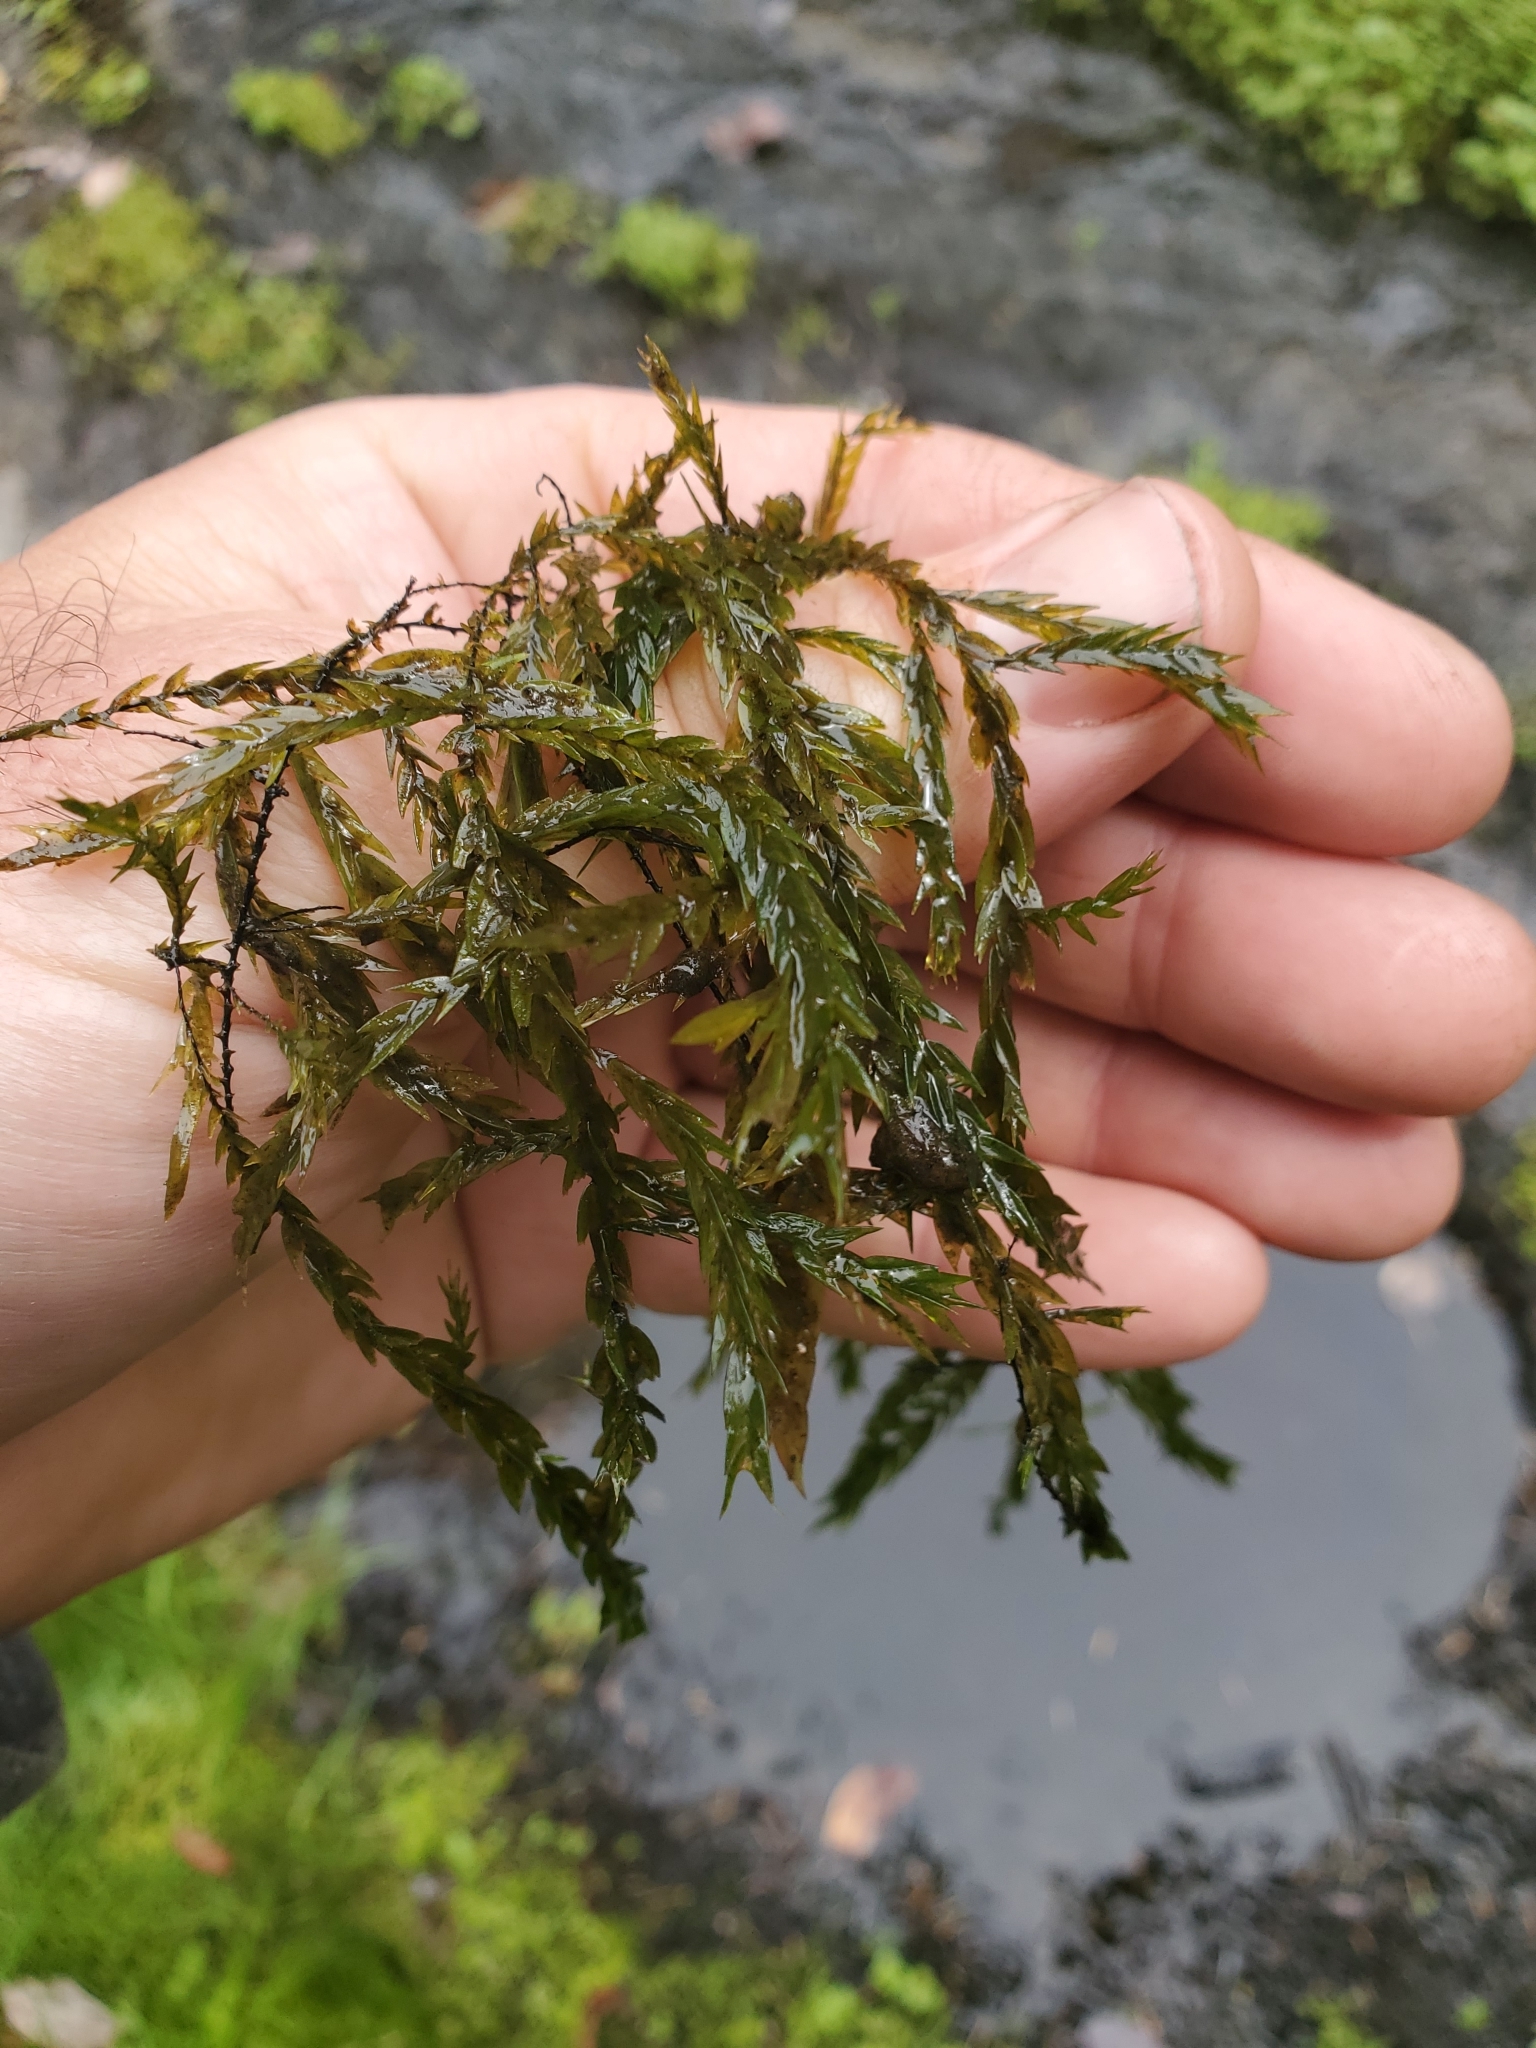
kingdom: Plantae
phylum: Bryophyta
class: Bryopsida
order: Hypnales
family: Fontinalaceae
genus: Fontinalis
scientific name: Fontinalis antipyretica
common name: Greater water-moss
